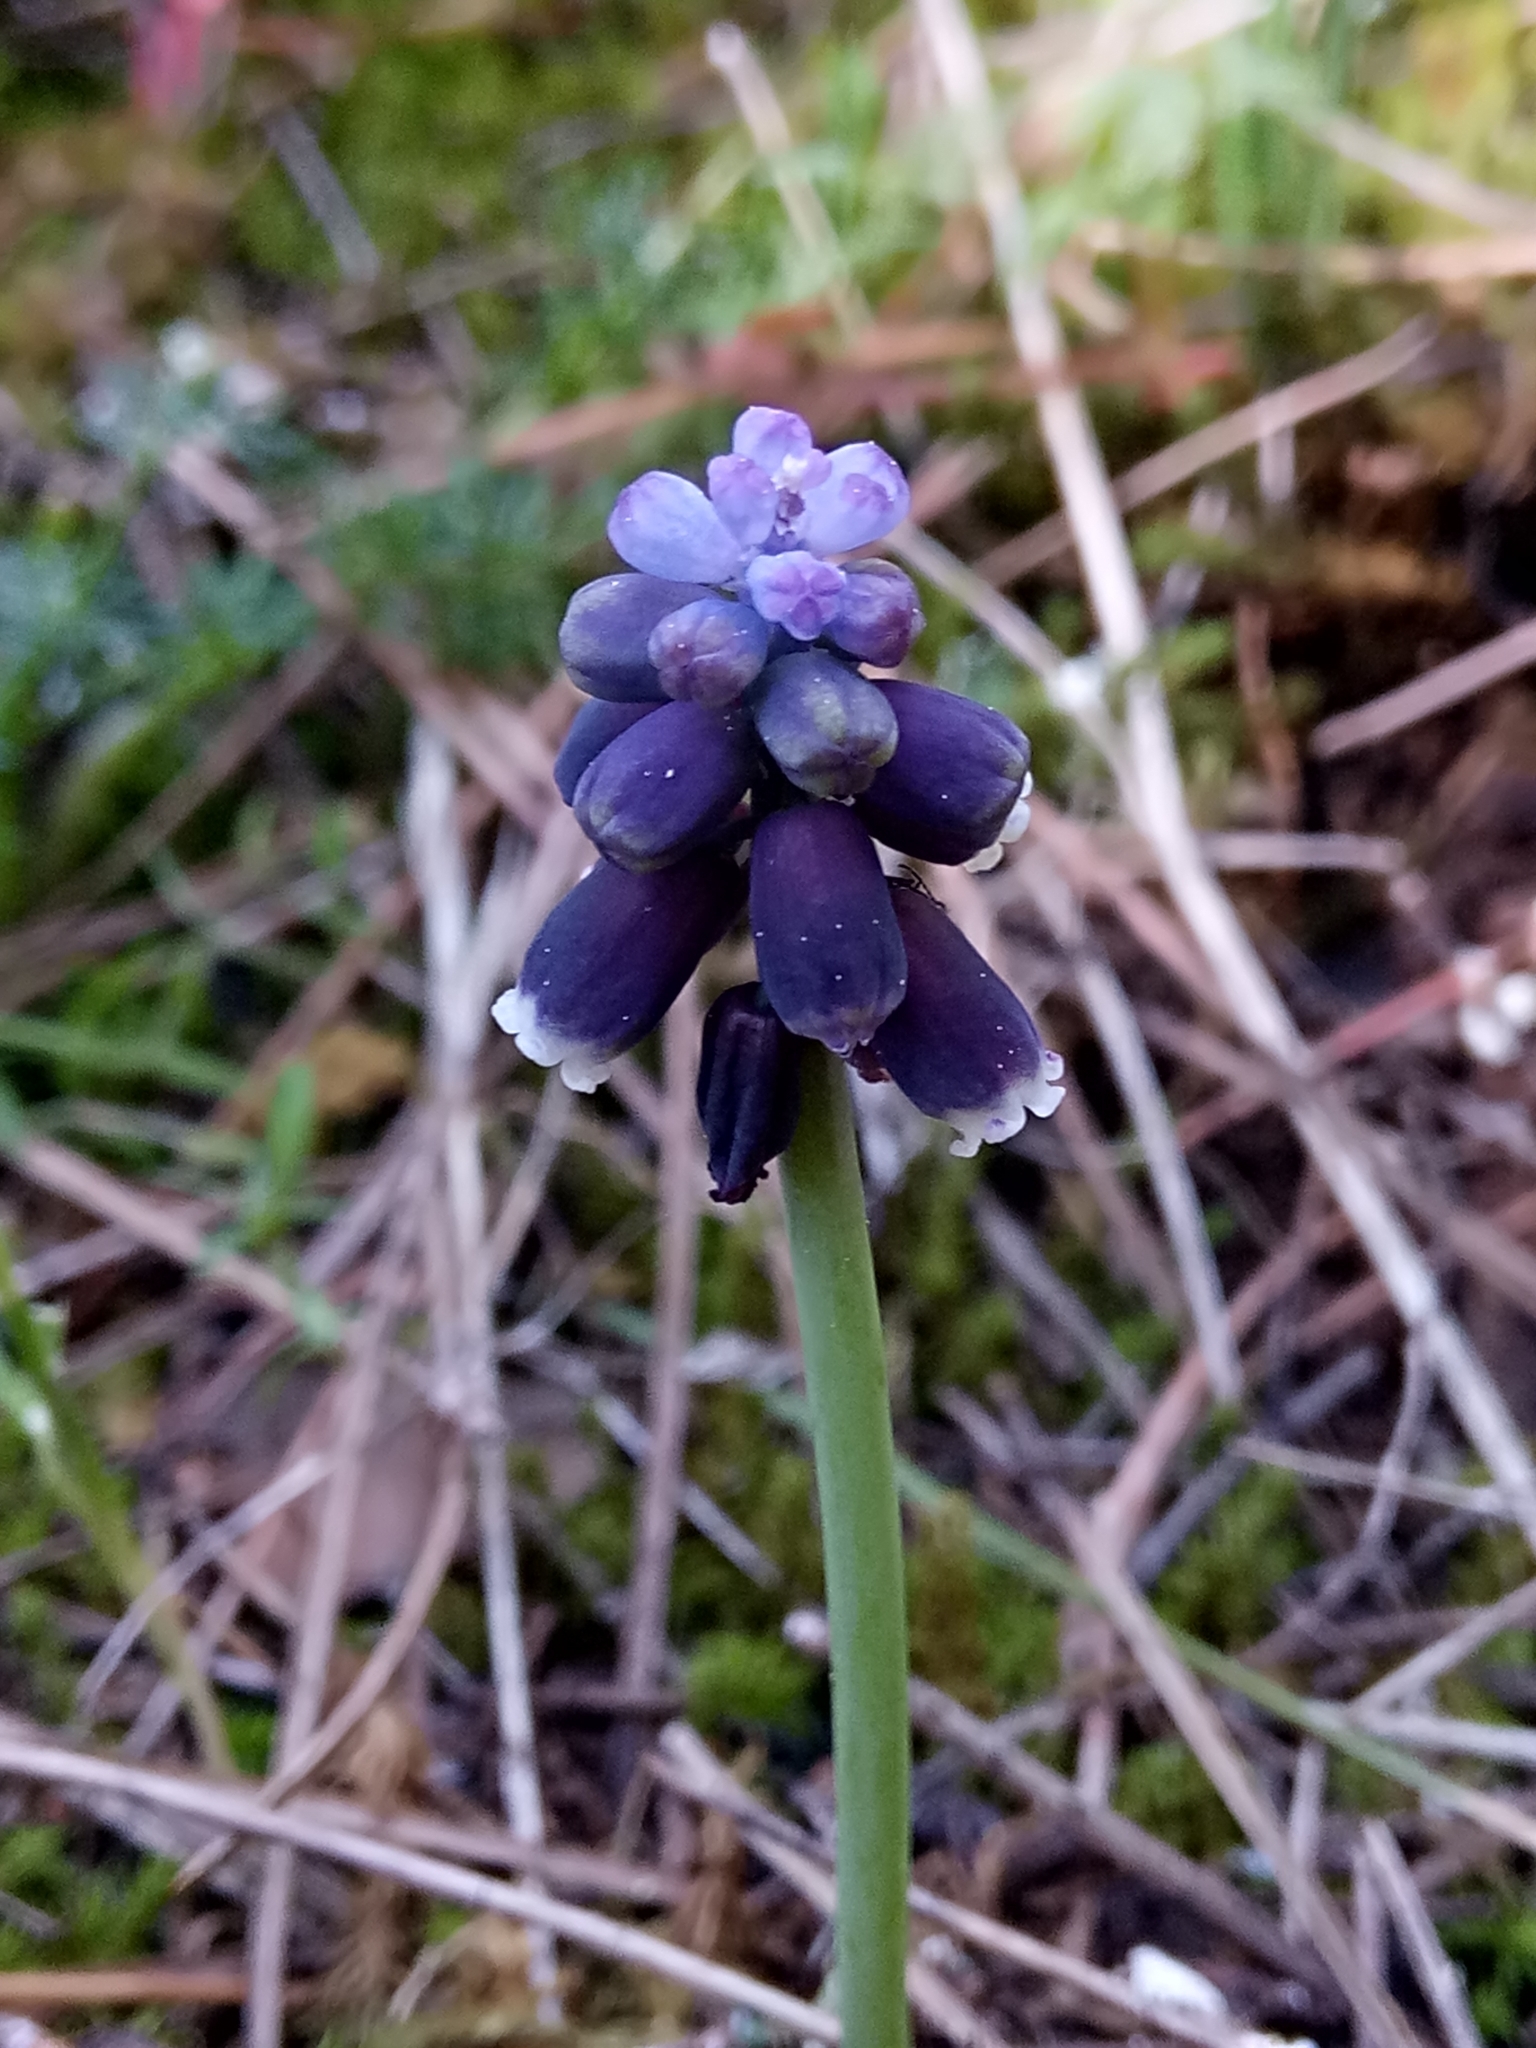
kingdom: Plantae
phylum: Tracheophyta
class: Liliopsida
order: Asparagales
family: Asparagaceae
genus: Muscari
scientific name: Muscari baeticum
